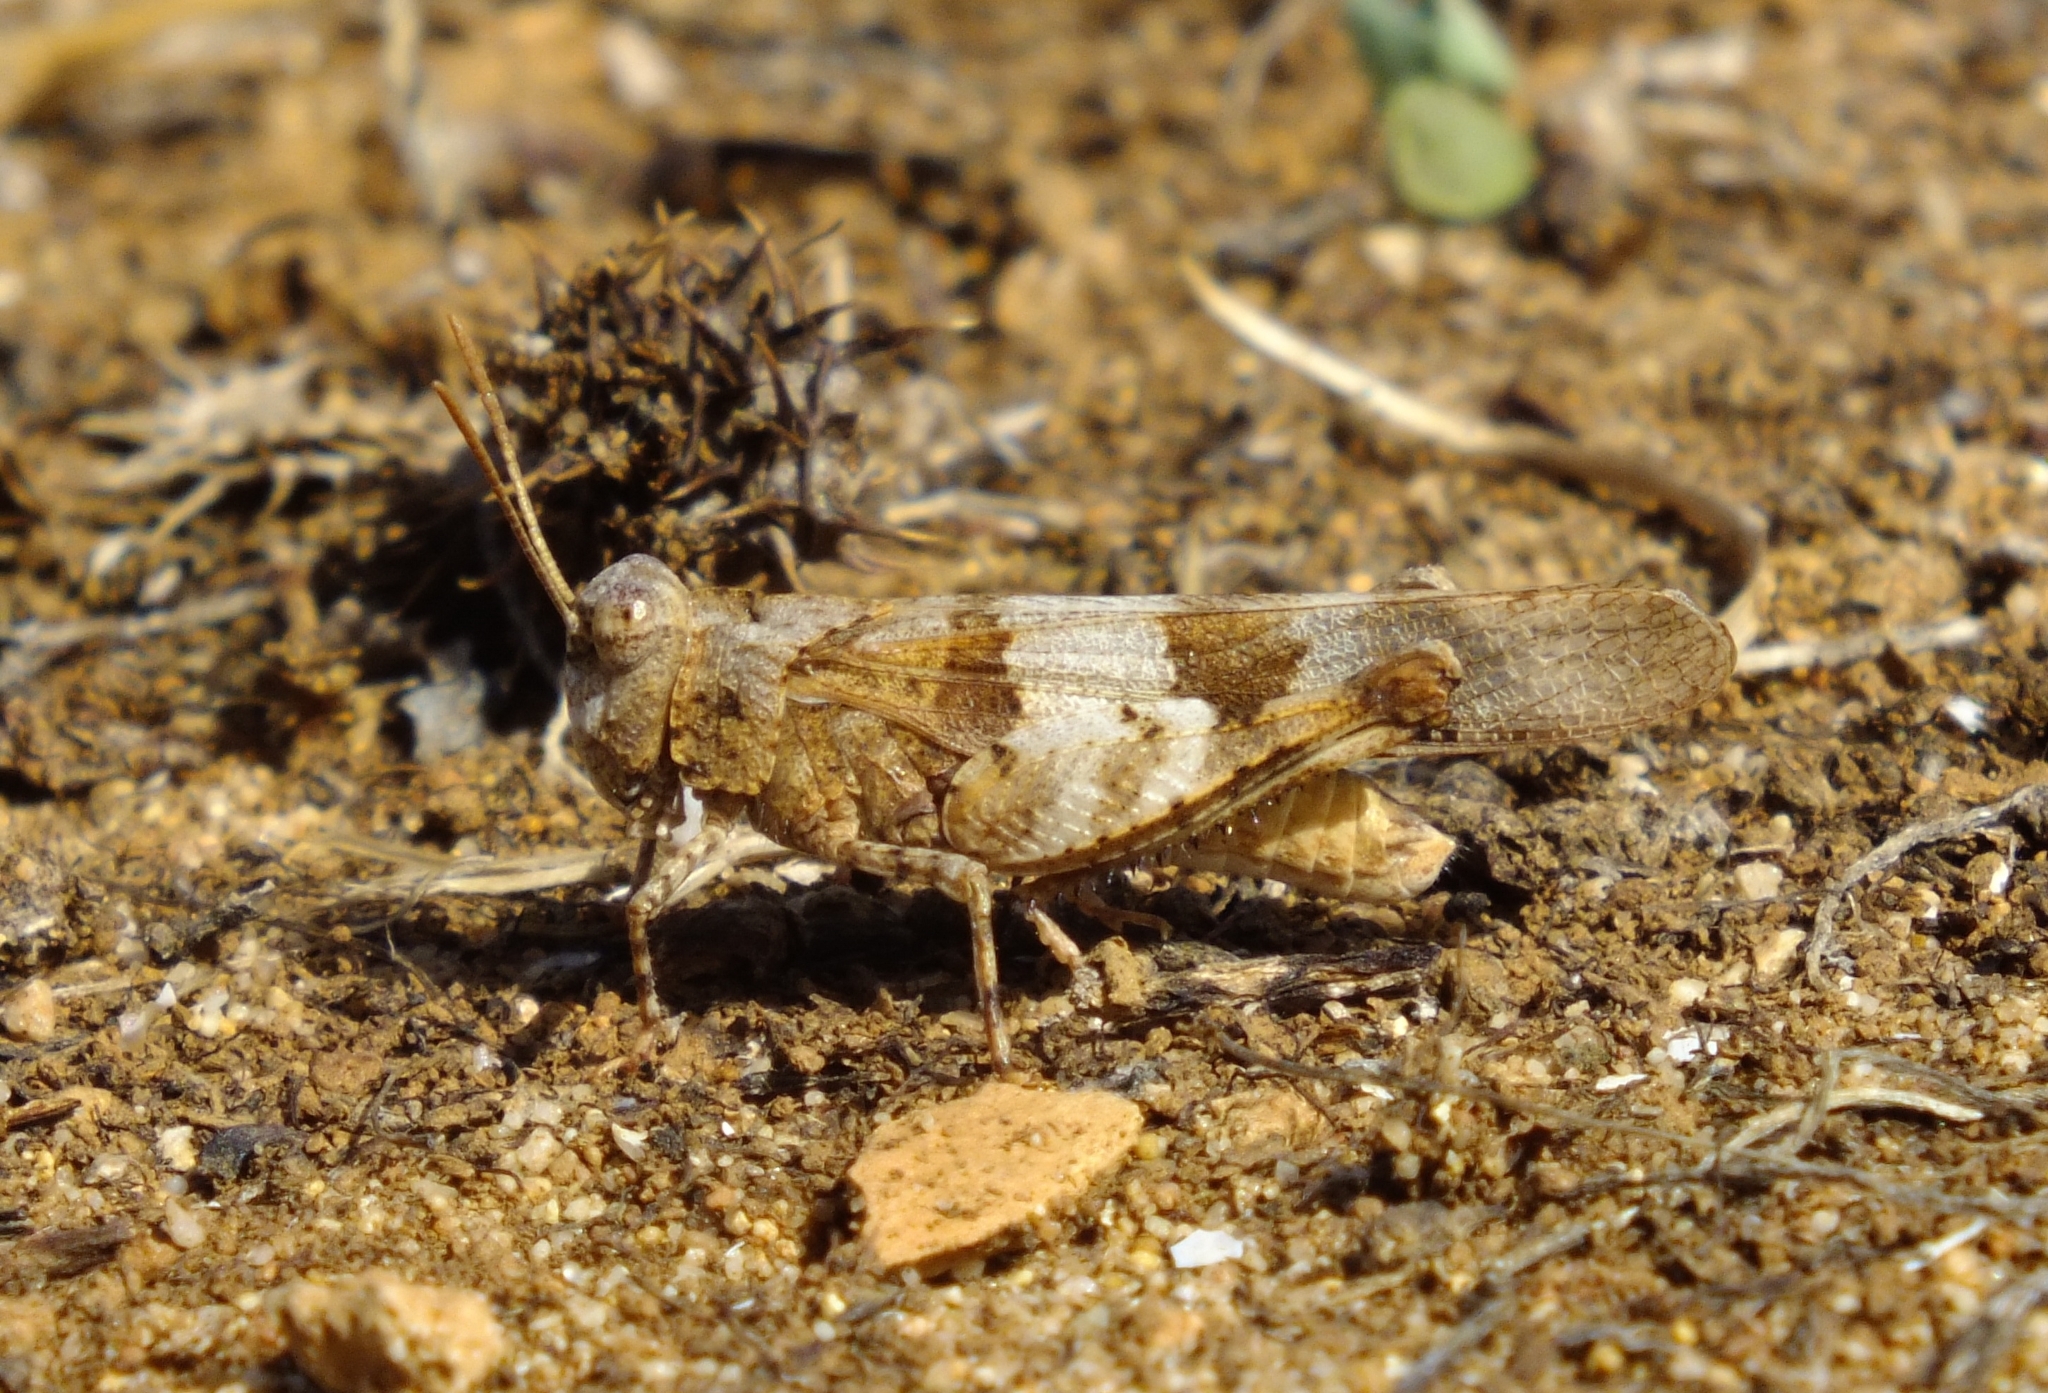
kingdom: Animalia
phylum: Arthropoda
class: Insecta
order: Orthoptera
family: Acrididae
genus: Oedipoda
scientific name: Oedipoda caerulescens
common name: Blue-winged grasshopper
